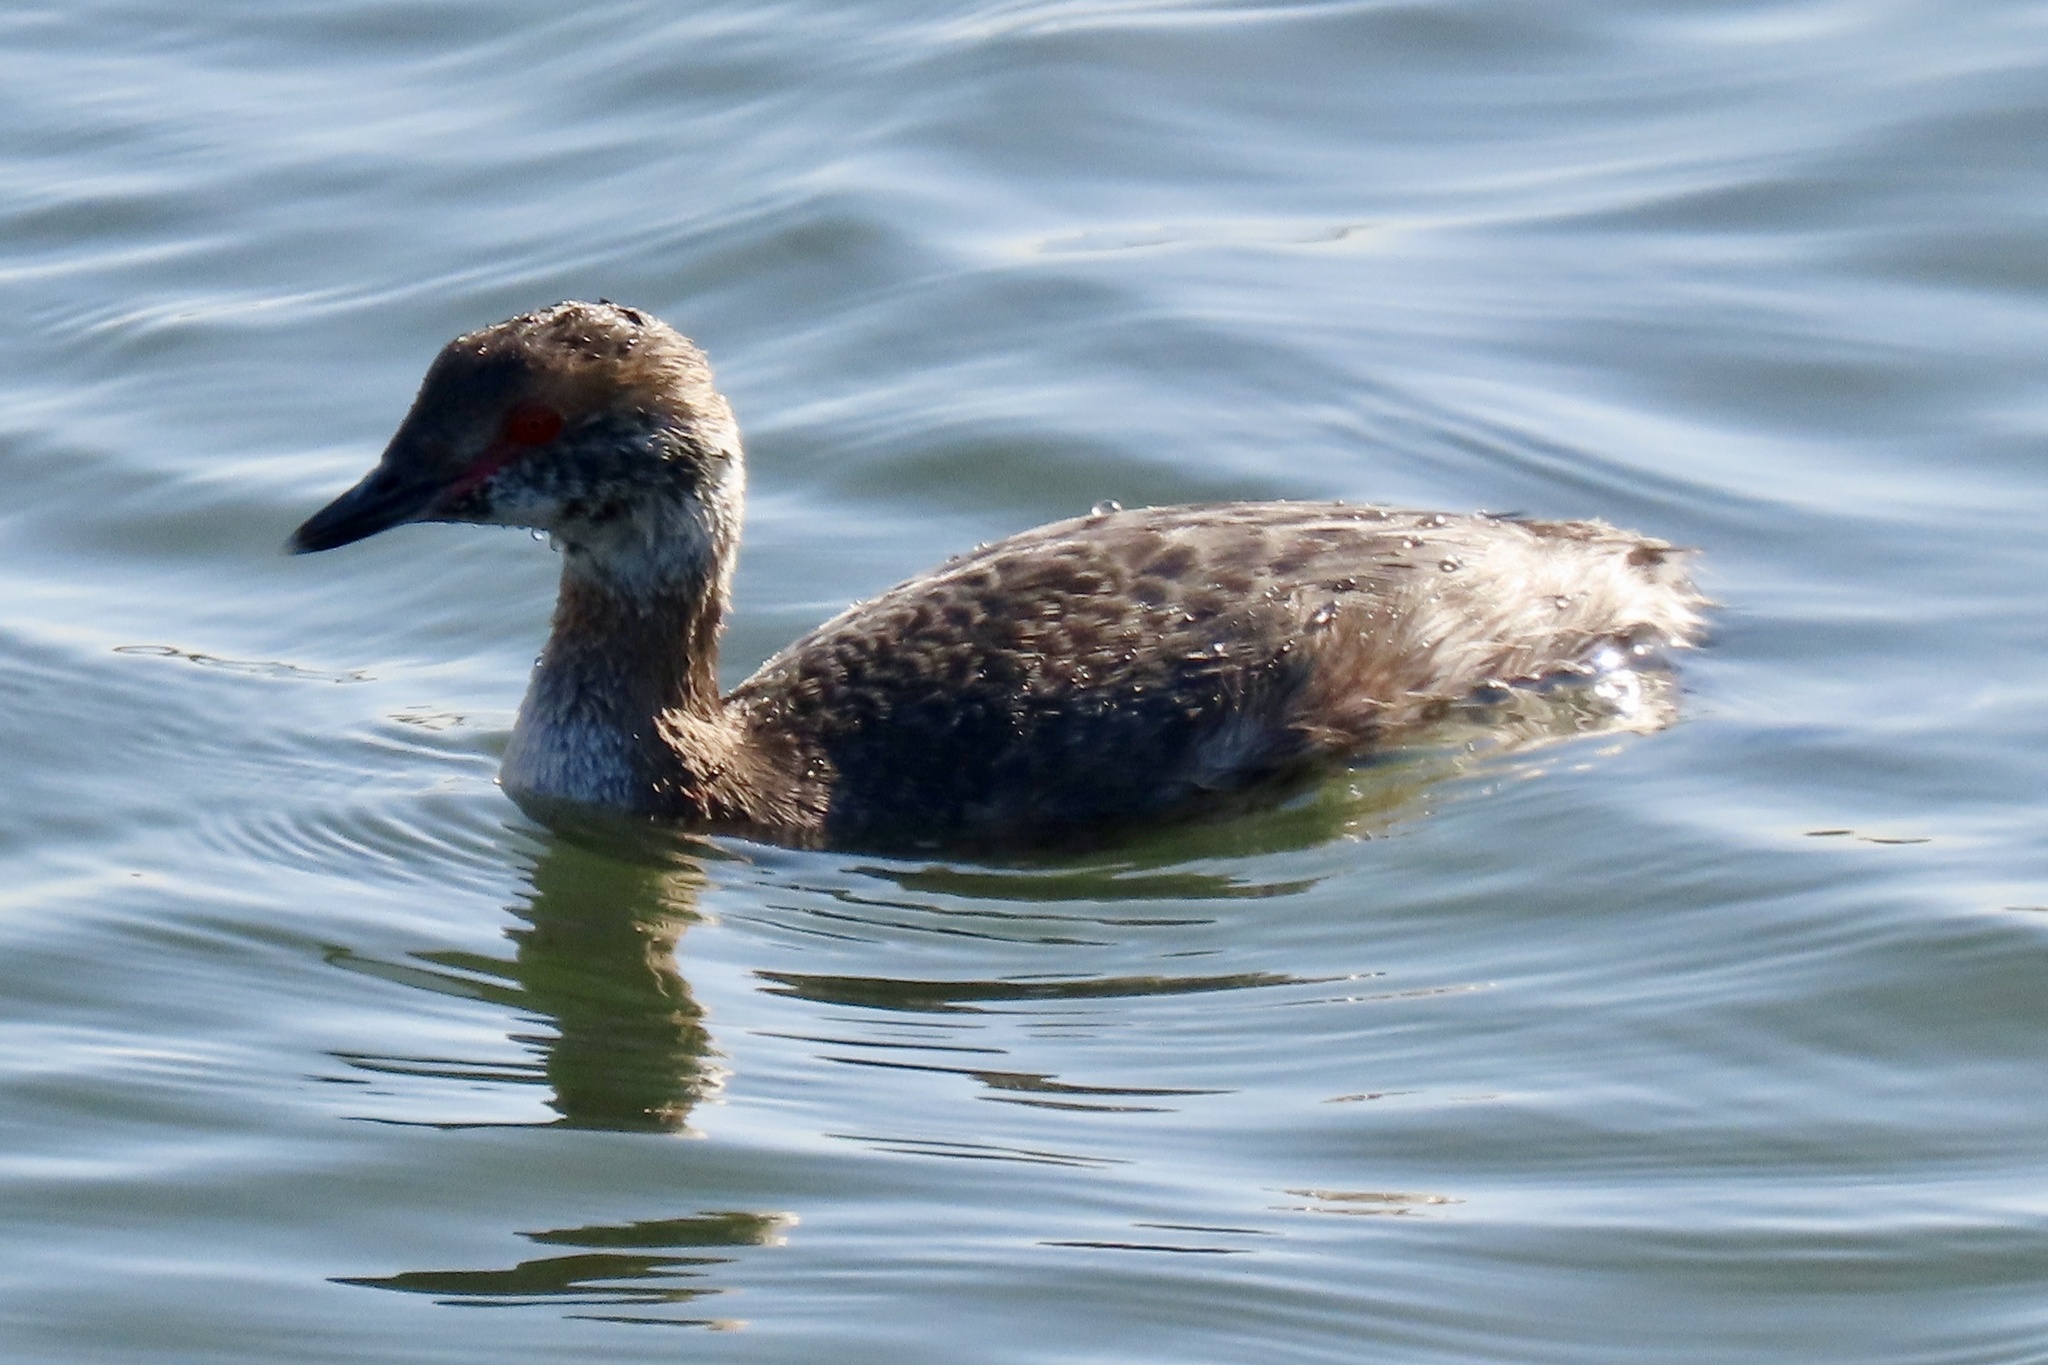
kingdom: Animalia
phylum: Chordata
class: Aves
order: Podicipediformes
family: Podicipedidae
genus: Podiceps
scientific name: Podiceps auritus
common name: Horned grebe
